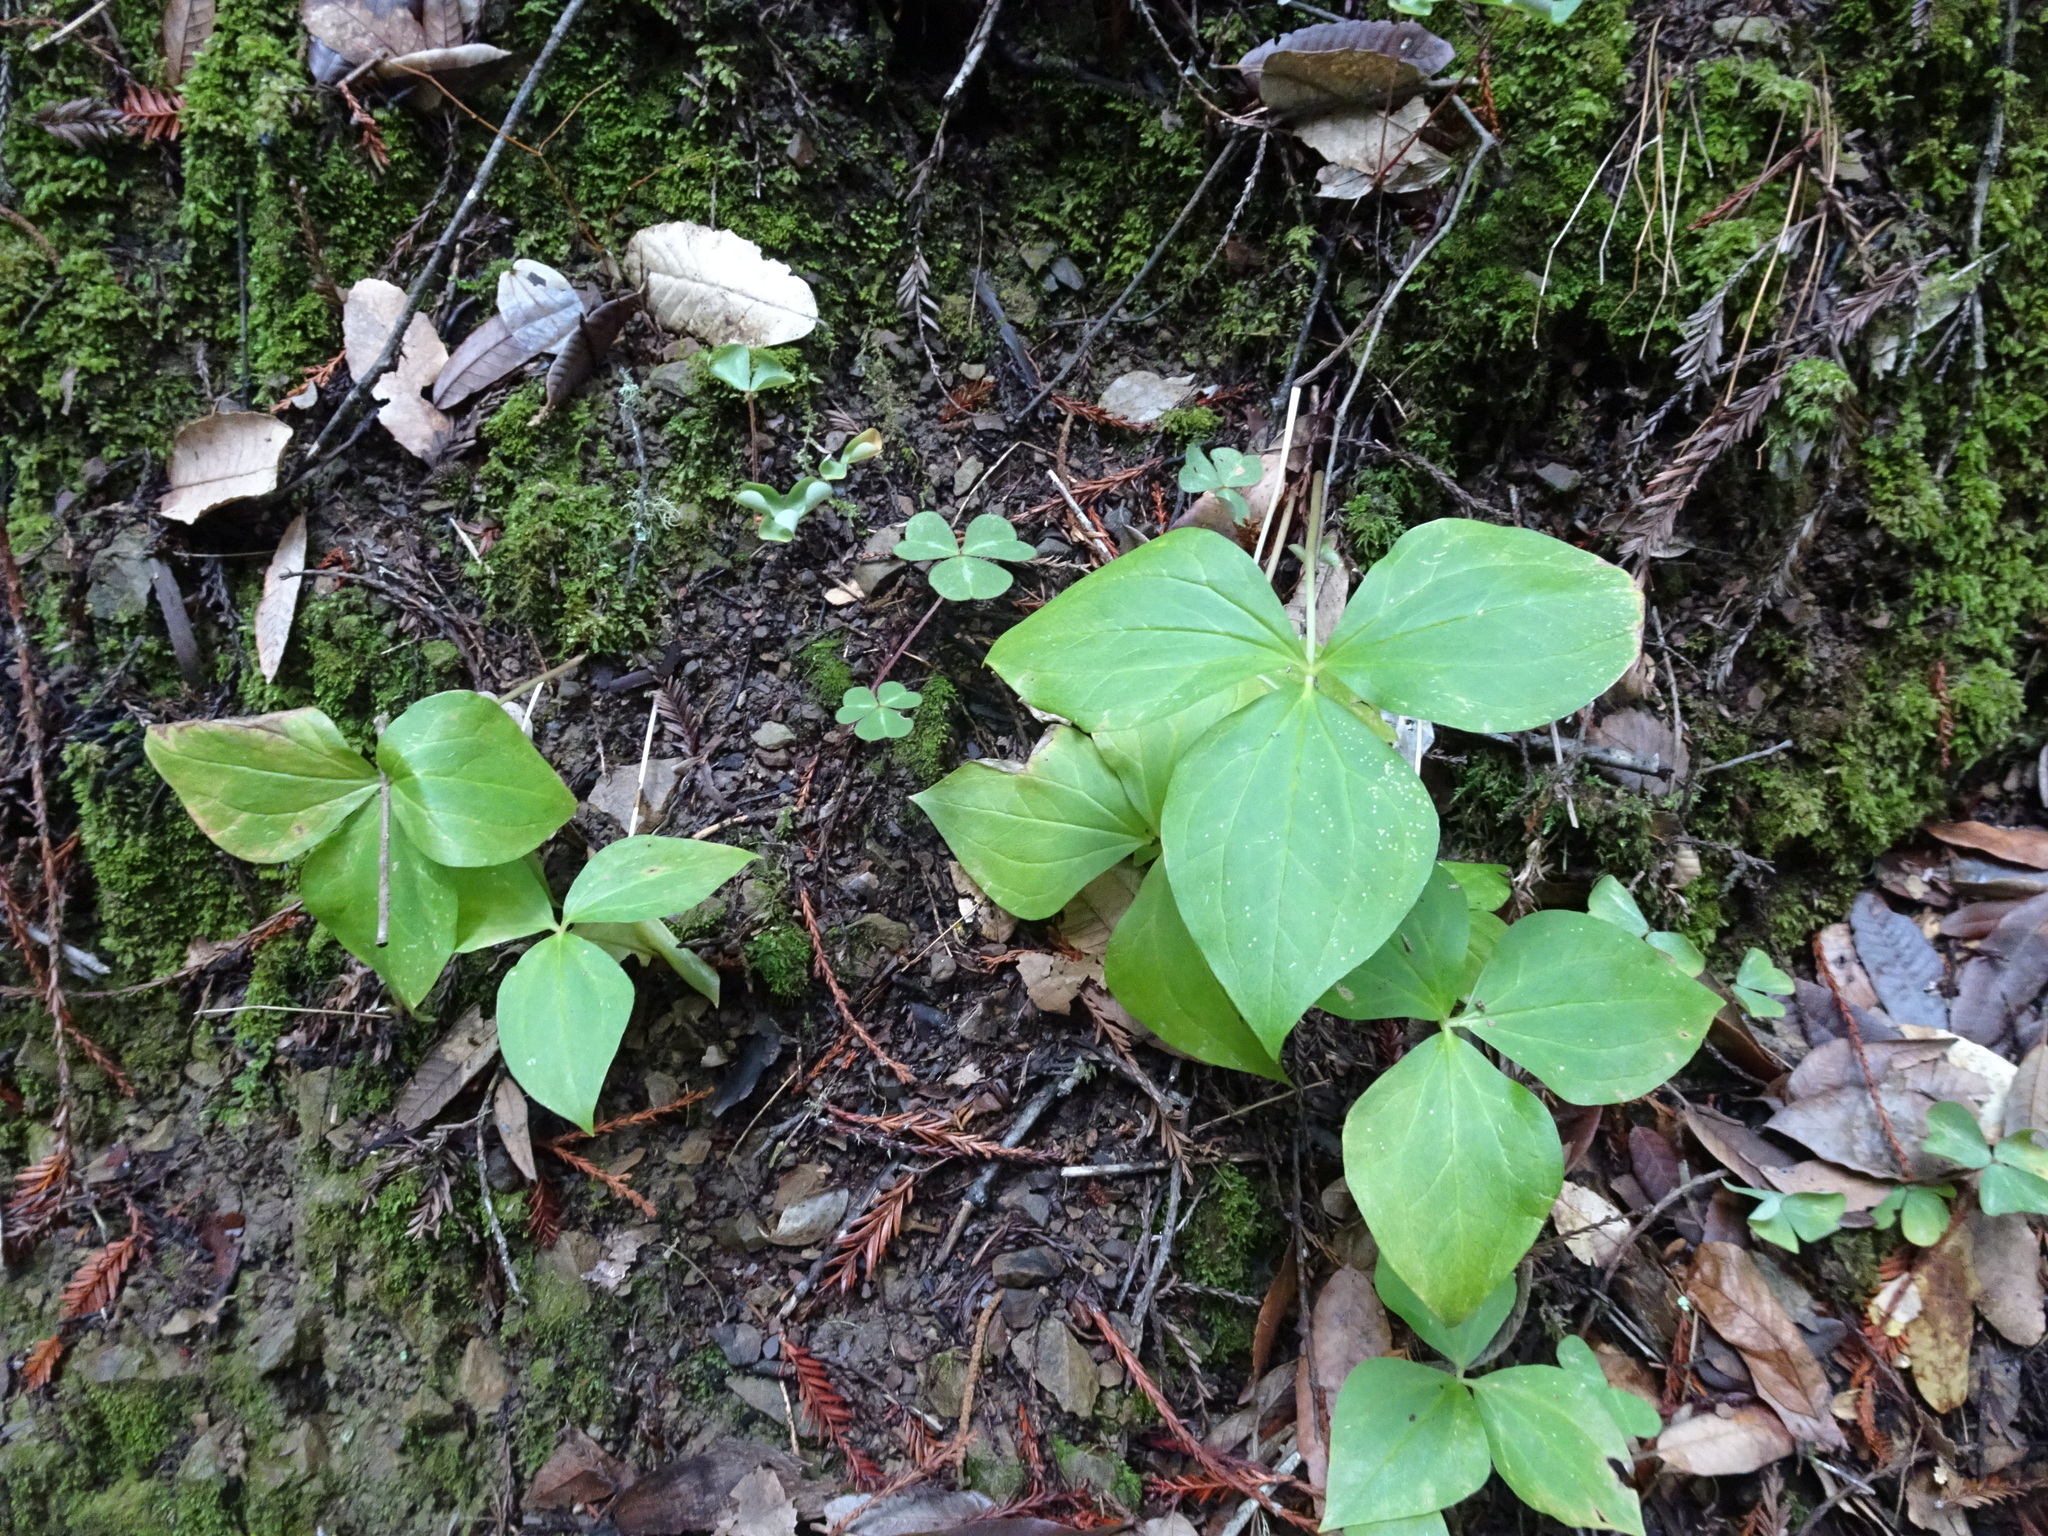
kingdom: Plantae
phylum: Tracheophyta
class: Liliopsida
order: Liliales
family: Melanthiaceae
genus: Trillium
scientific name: Trillium ovatum
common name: Pacific trillium
